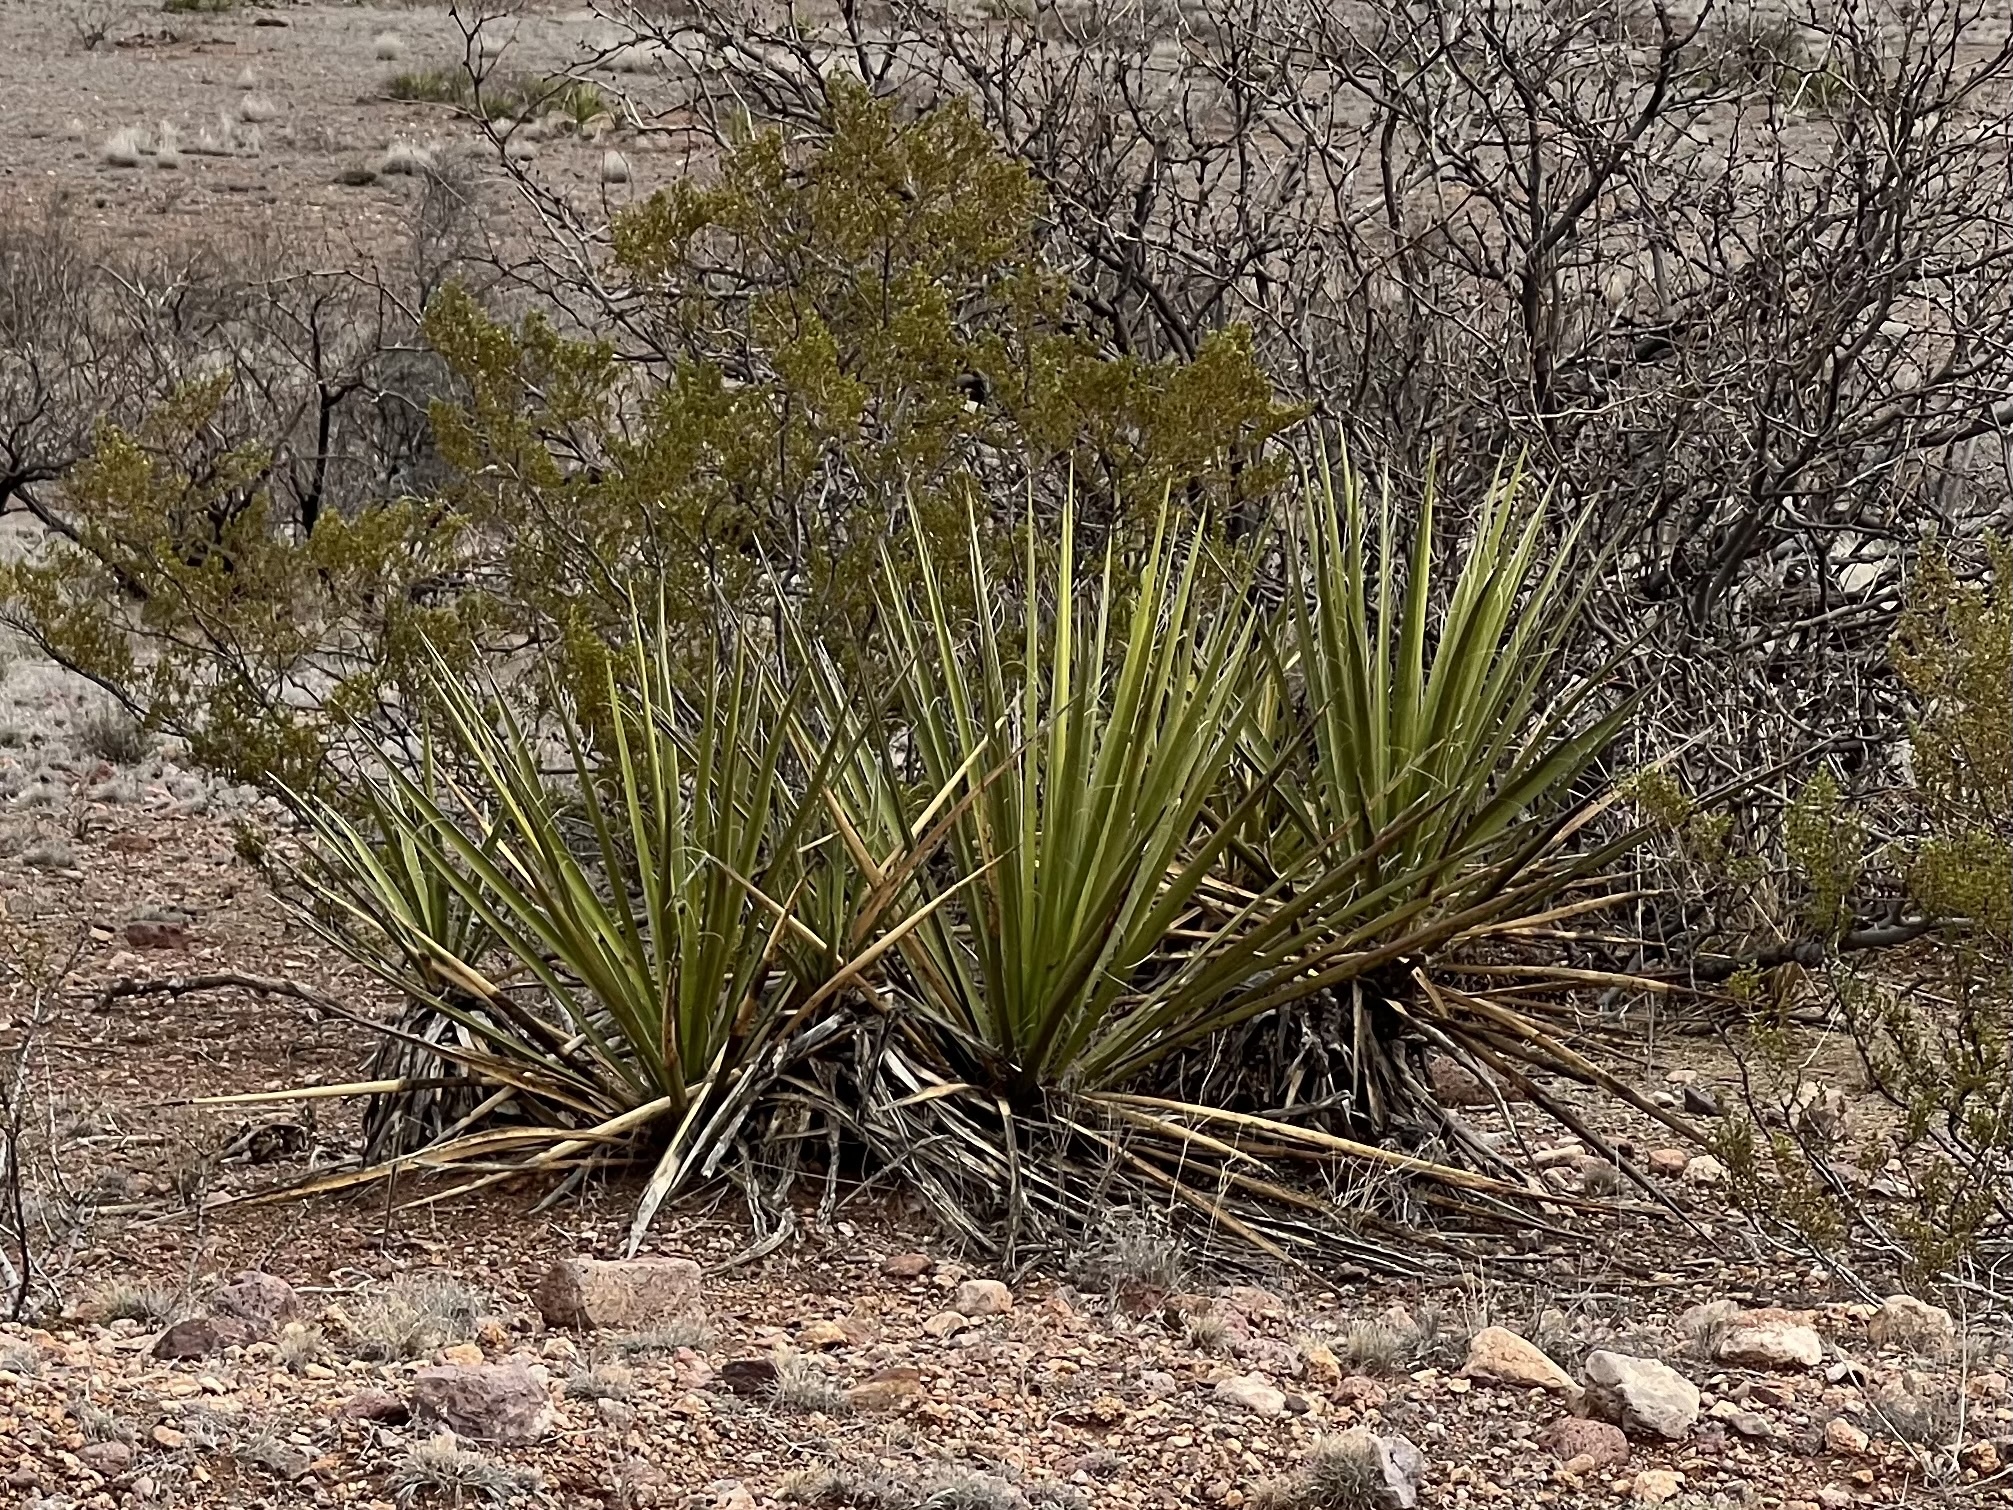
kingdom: Plantae
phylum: Tracheophyta
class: Liliopsida
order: Asparagales
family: Asparagaceae
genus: Yucca
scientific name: Yucca baccata
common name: Banana yucca
